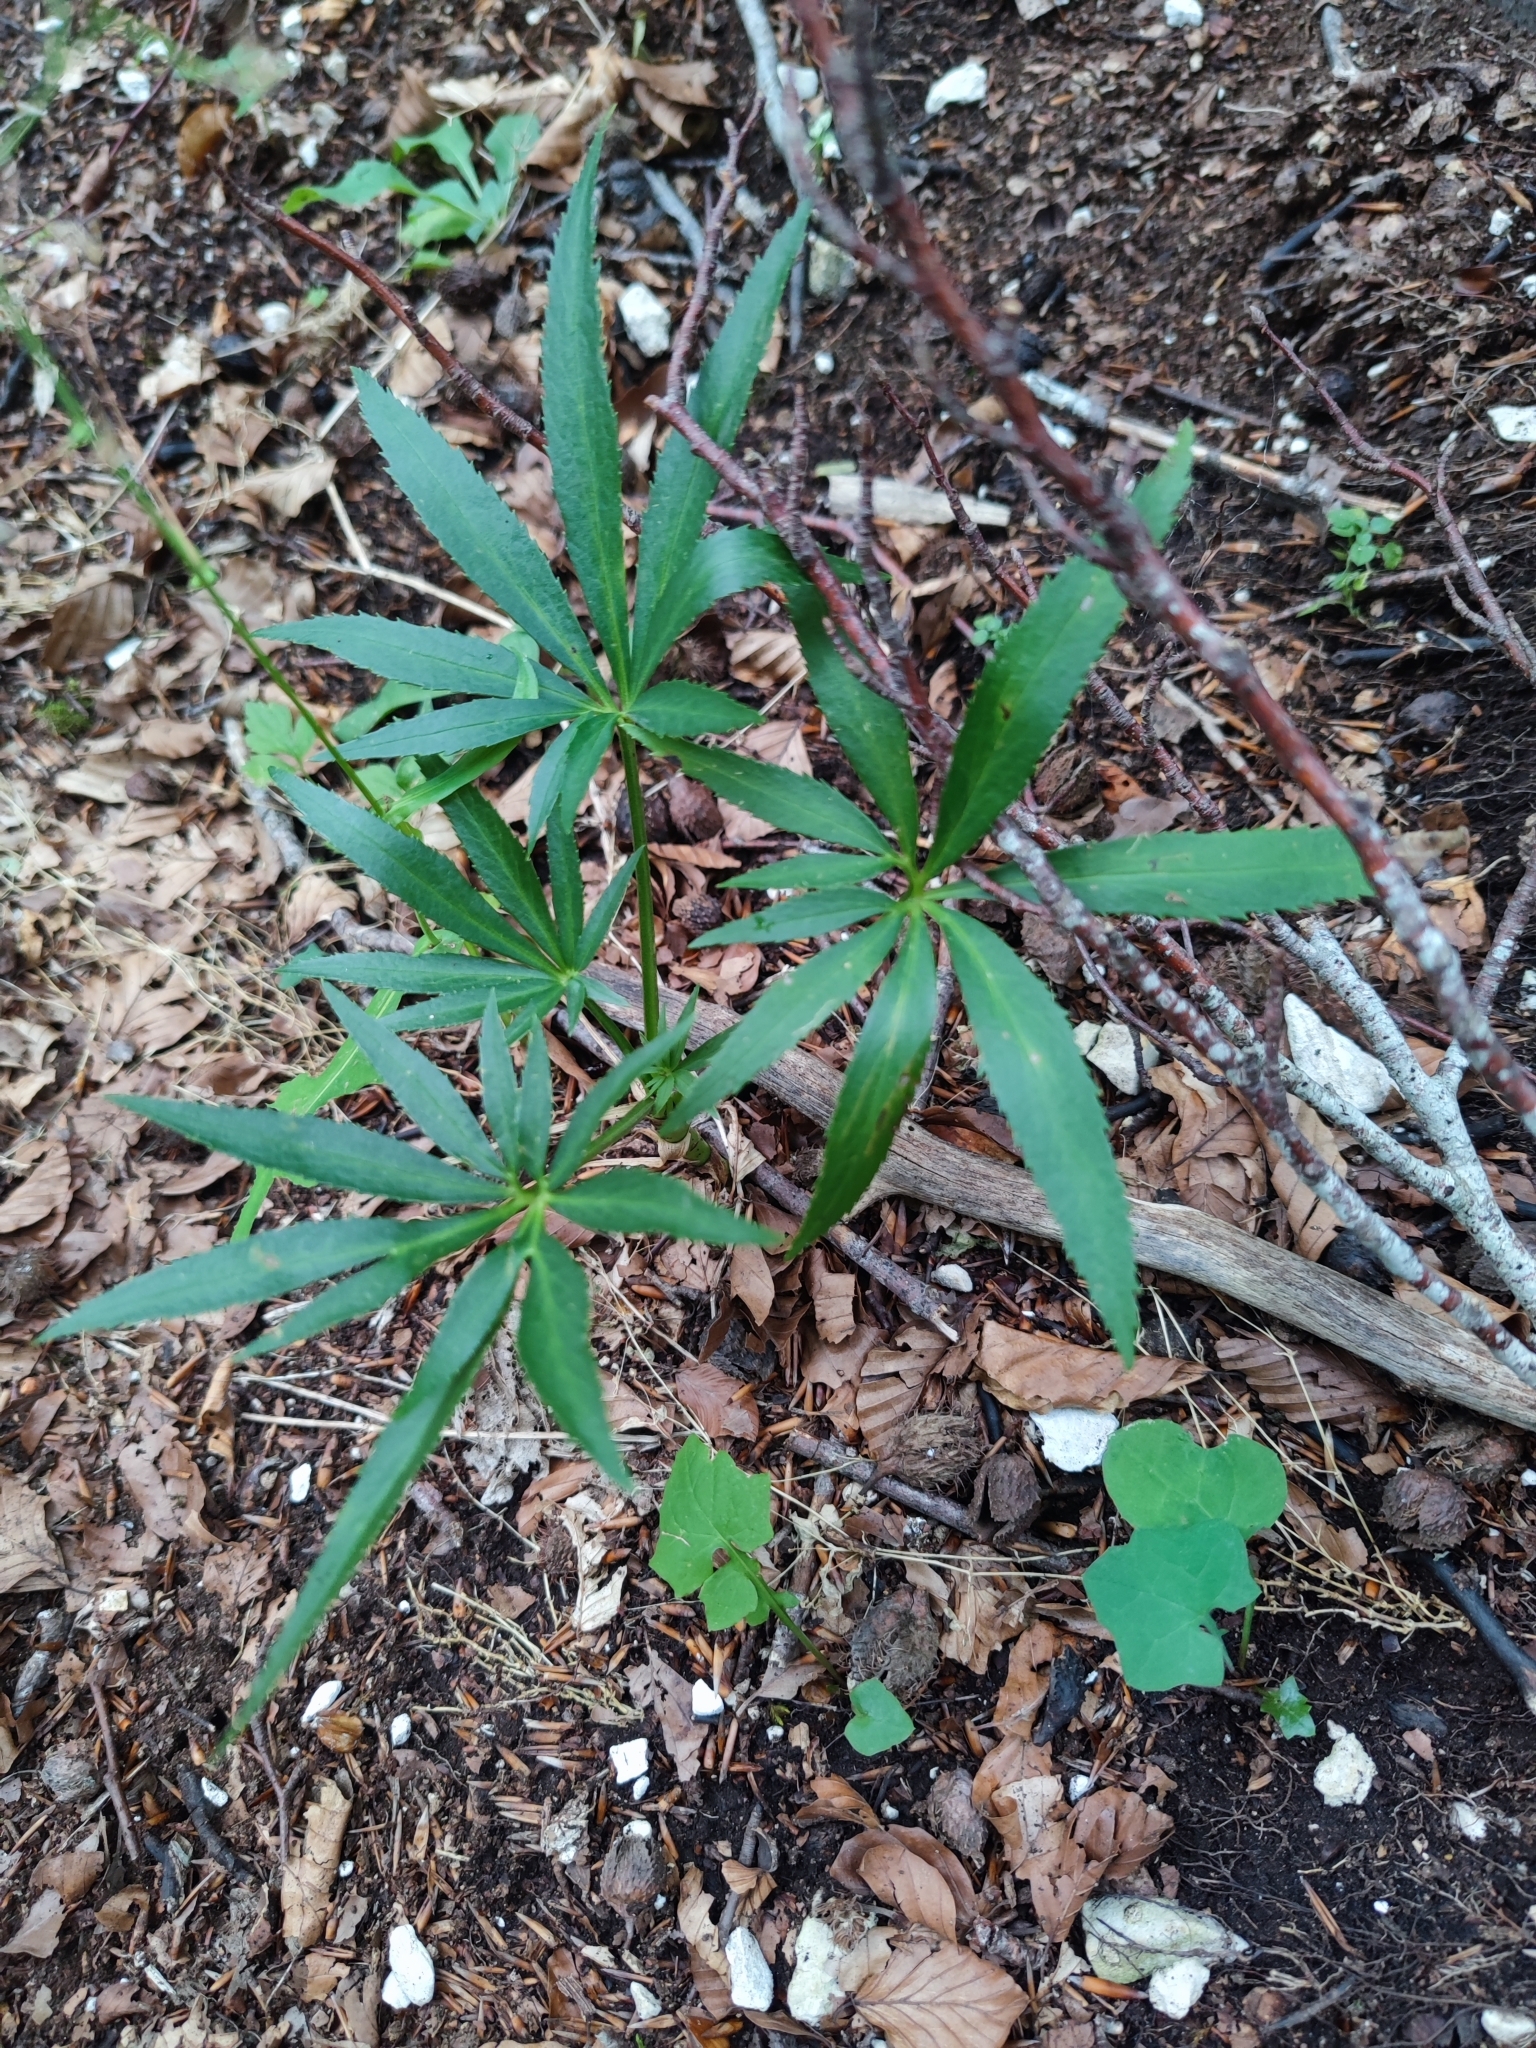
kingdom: Plantae
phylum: Tracheophyta
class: Magnoliopsida
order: Ranunculales
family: Ranunculaceae
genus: Helleborus
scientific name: Helleborus foetidus
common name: Stinking hellebore
